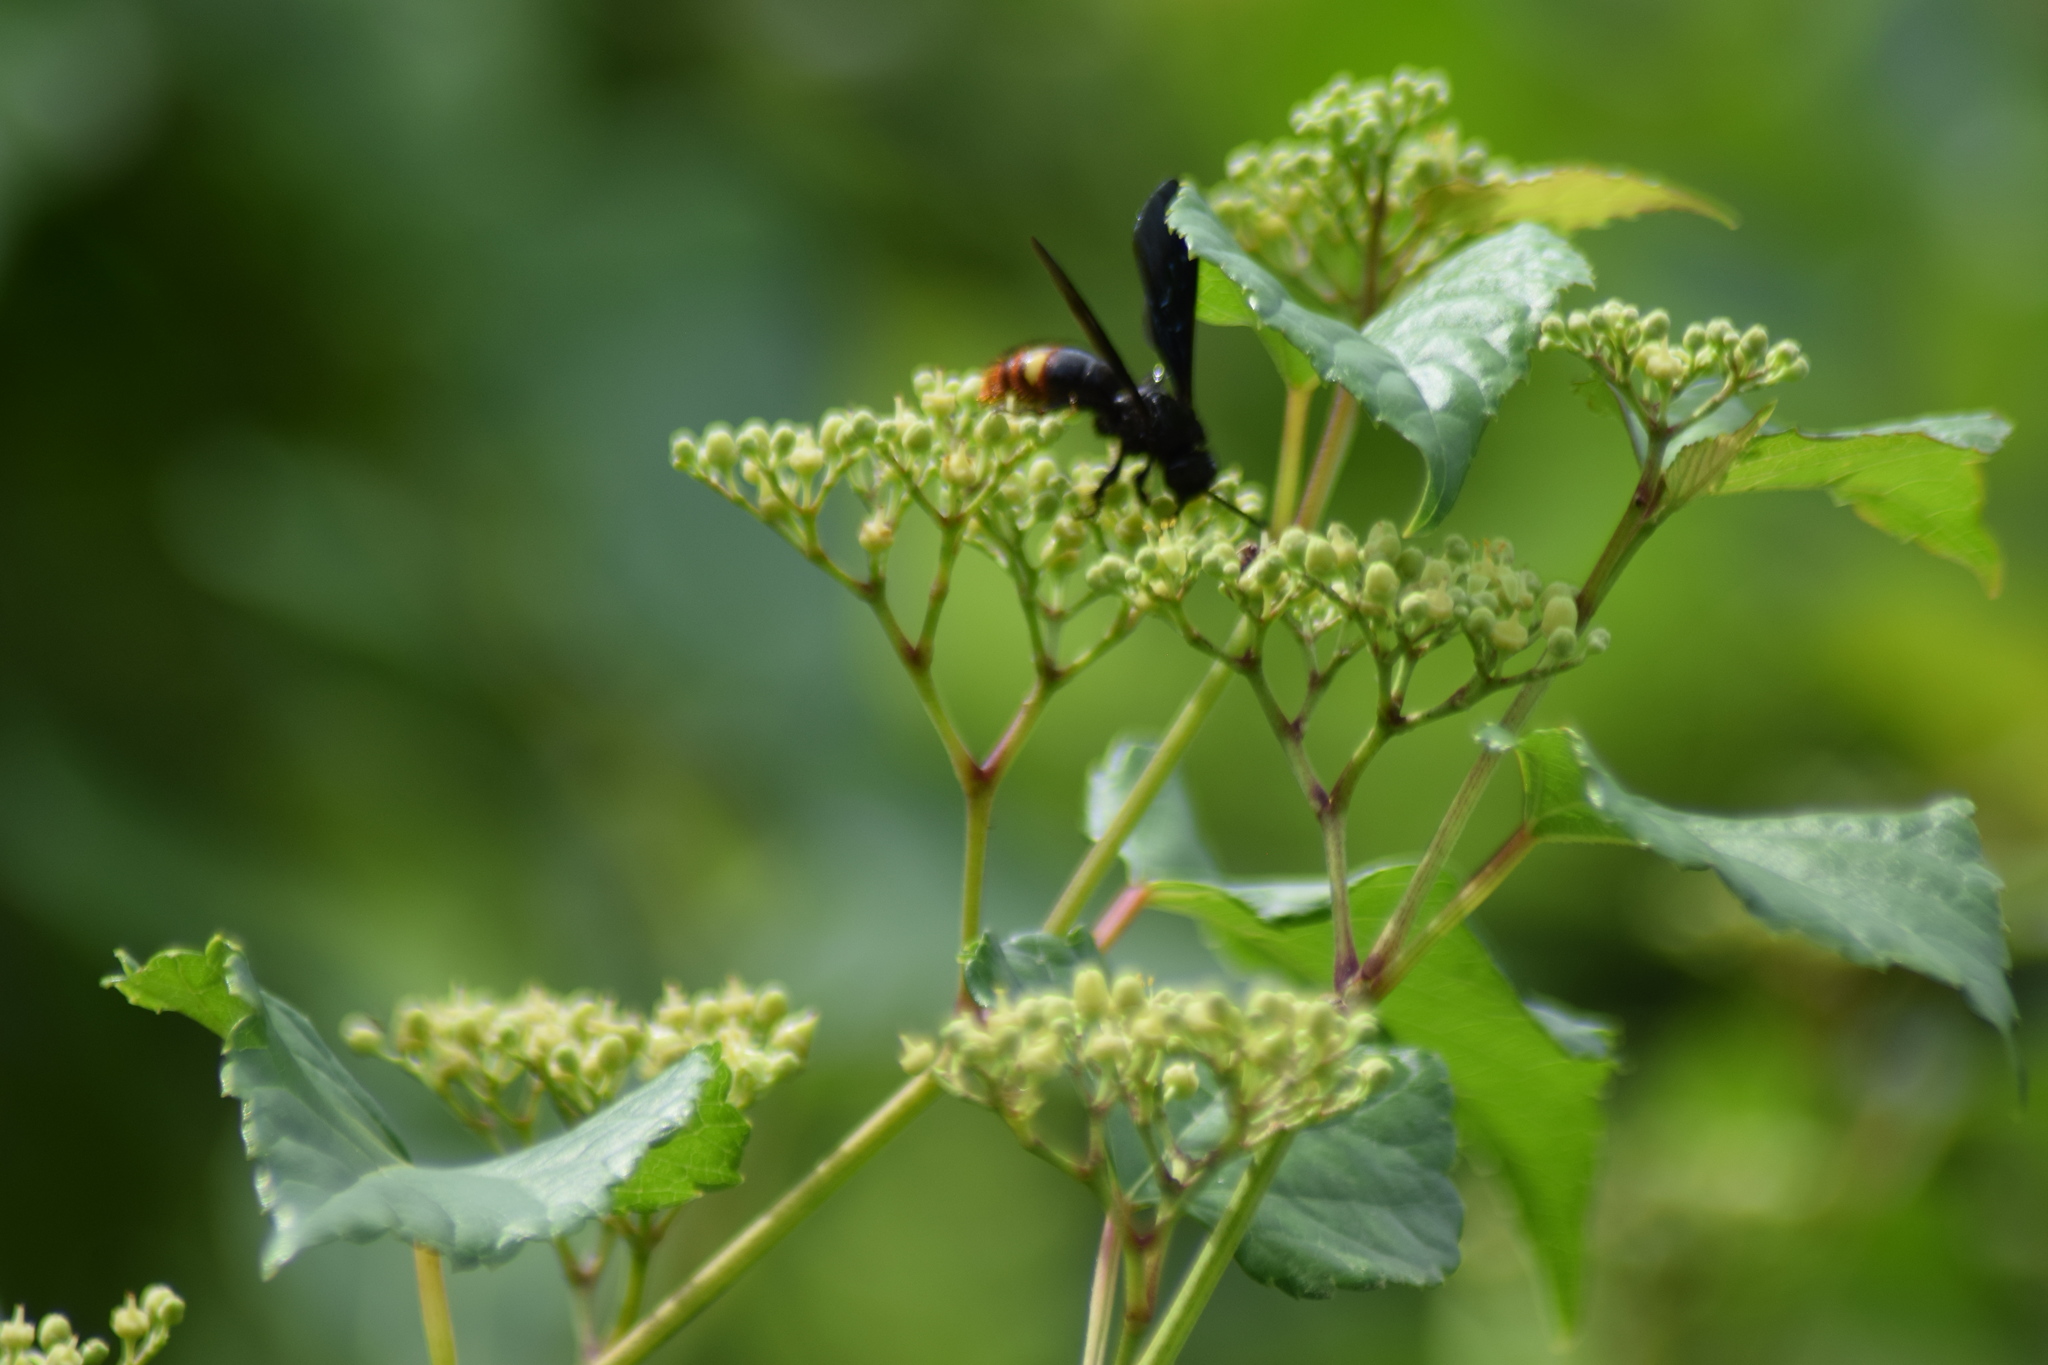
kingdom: Animalia
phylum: Arthropoda
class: Insecta
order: Hymenoptera
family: Scoliidae
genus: Scolia
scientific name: Scolia dubia
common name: Blue-winged scoliid wasp
